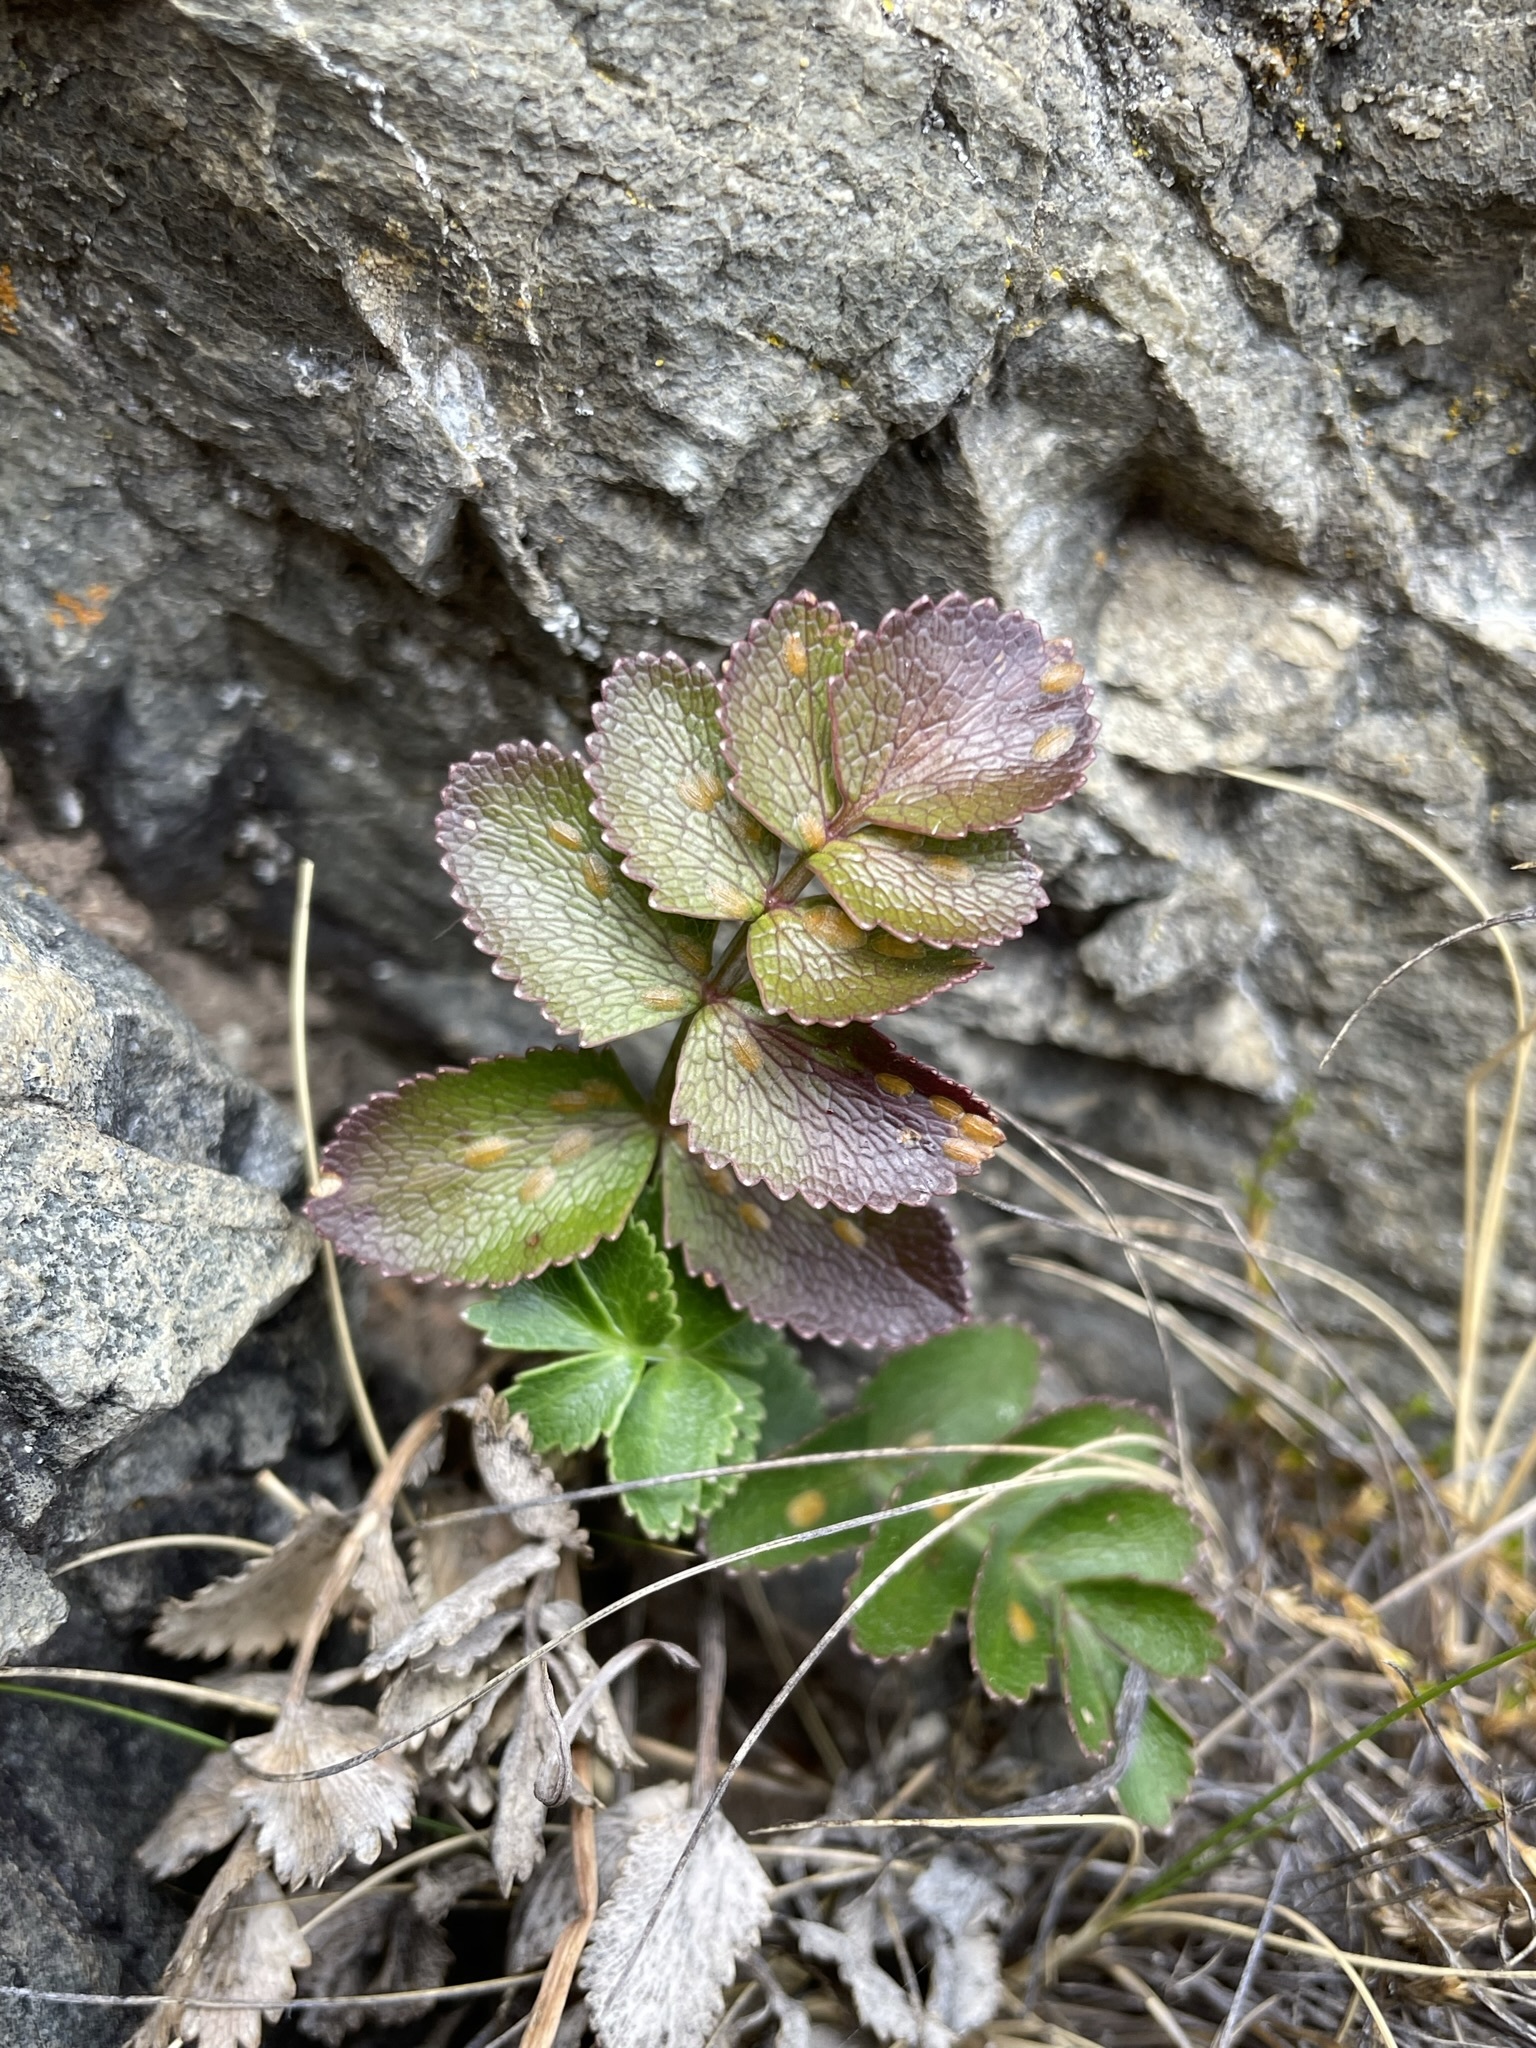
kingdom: Plantae
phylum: Tracheophyta
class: Magnoliopsida
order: Apiales
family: Apiaceae
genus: Gingidia
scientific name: Gingidia montana
